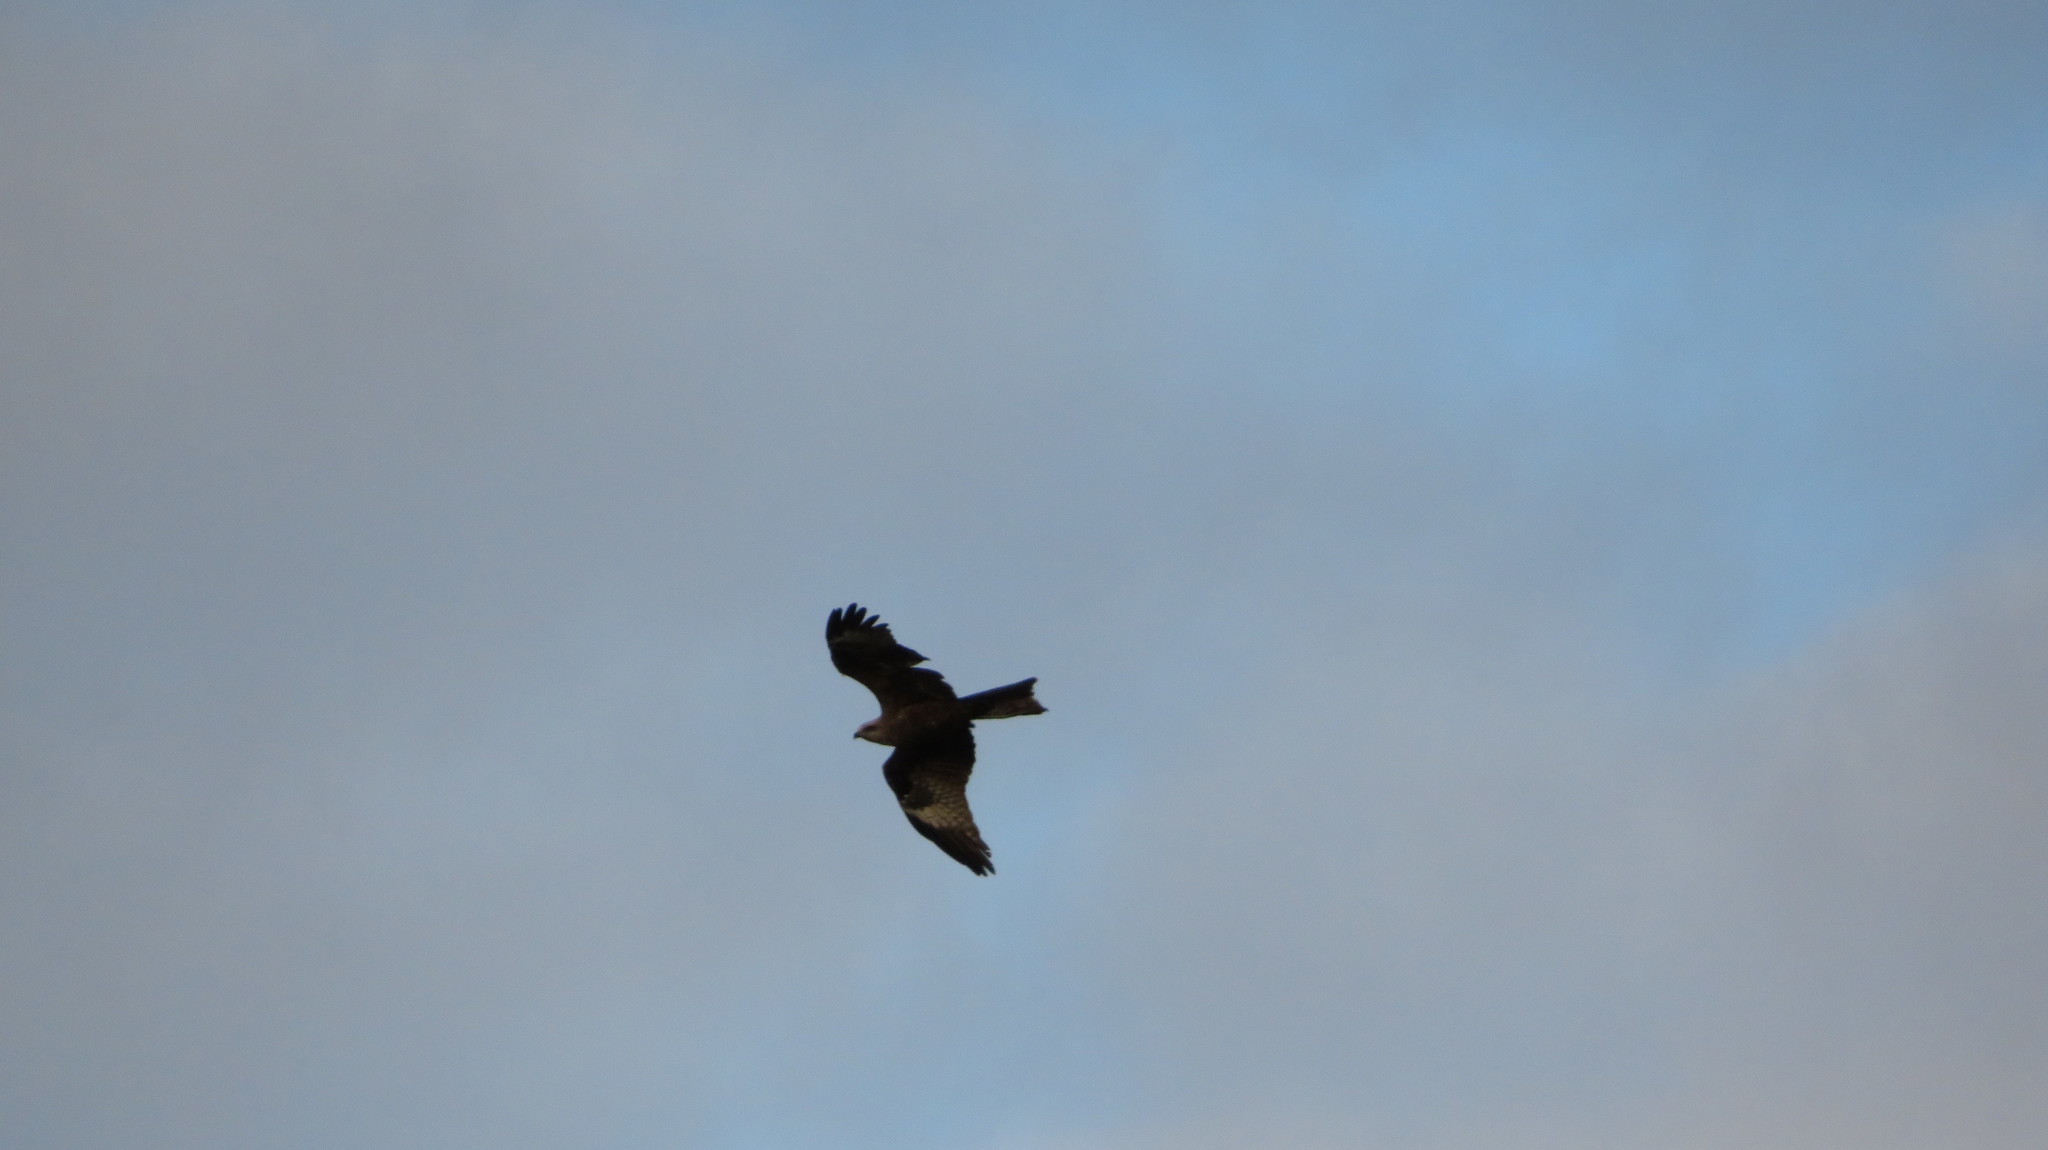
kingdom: Animalia
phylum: Chordata
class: Aves
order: Accipitriformes
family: Accipitridae
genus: Milvus
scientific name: Milvus migrans
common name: Black kite
